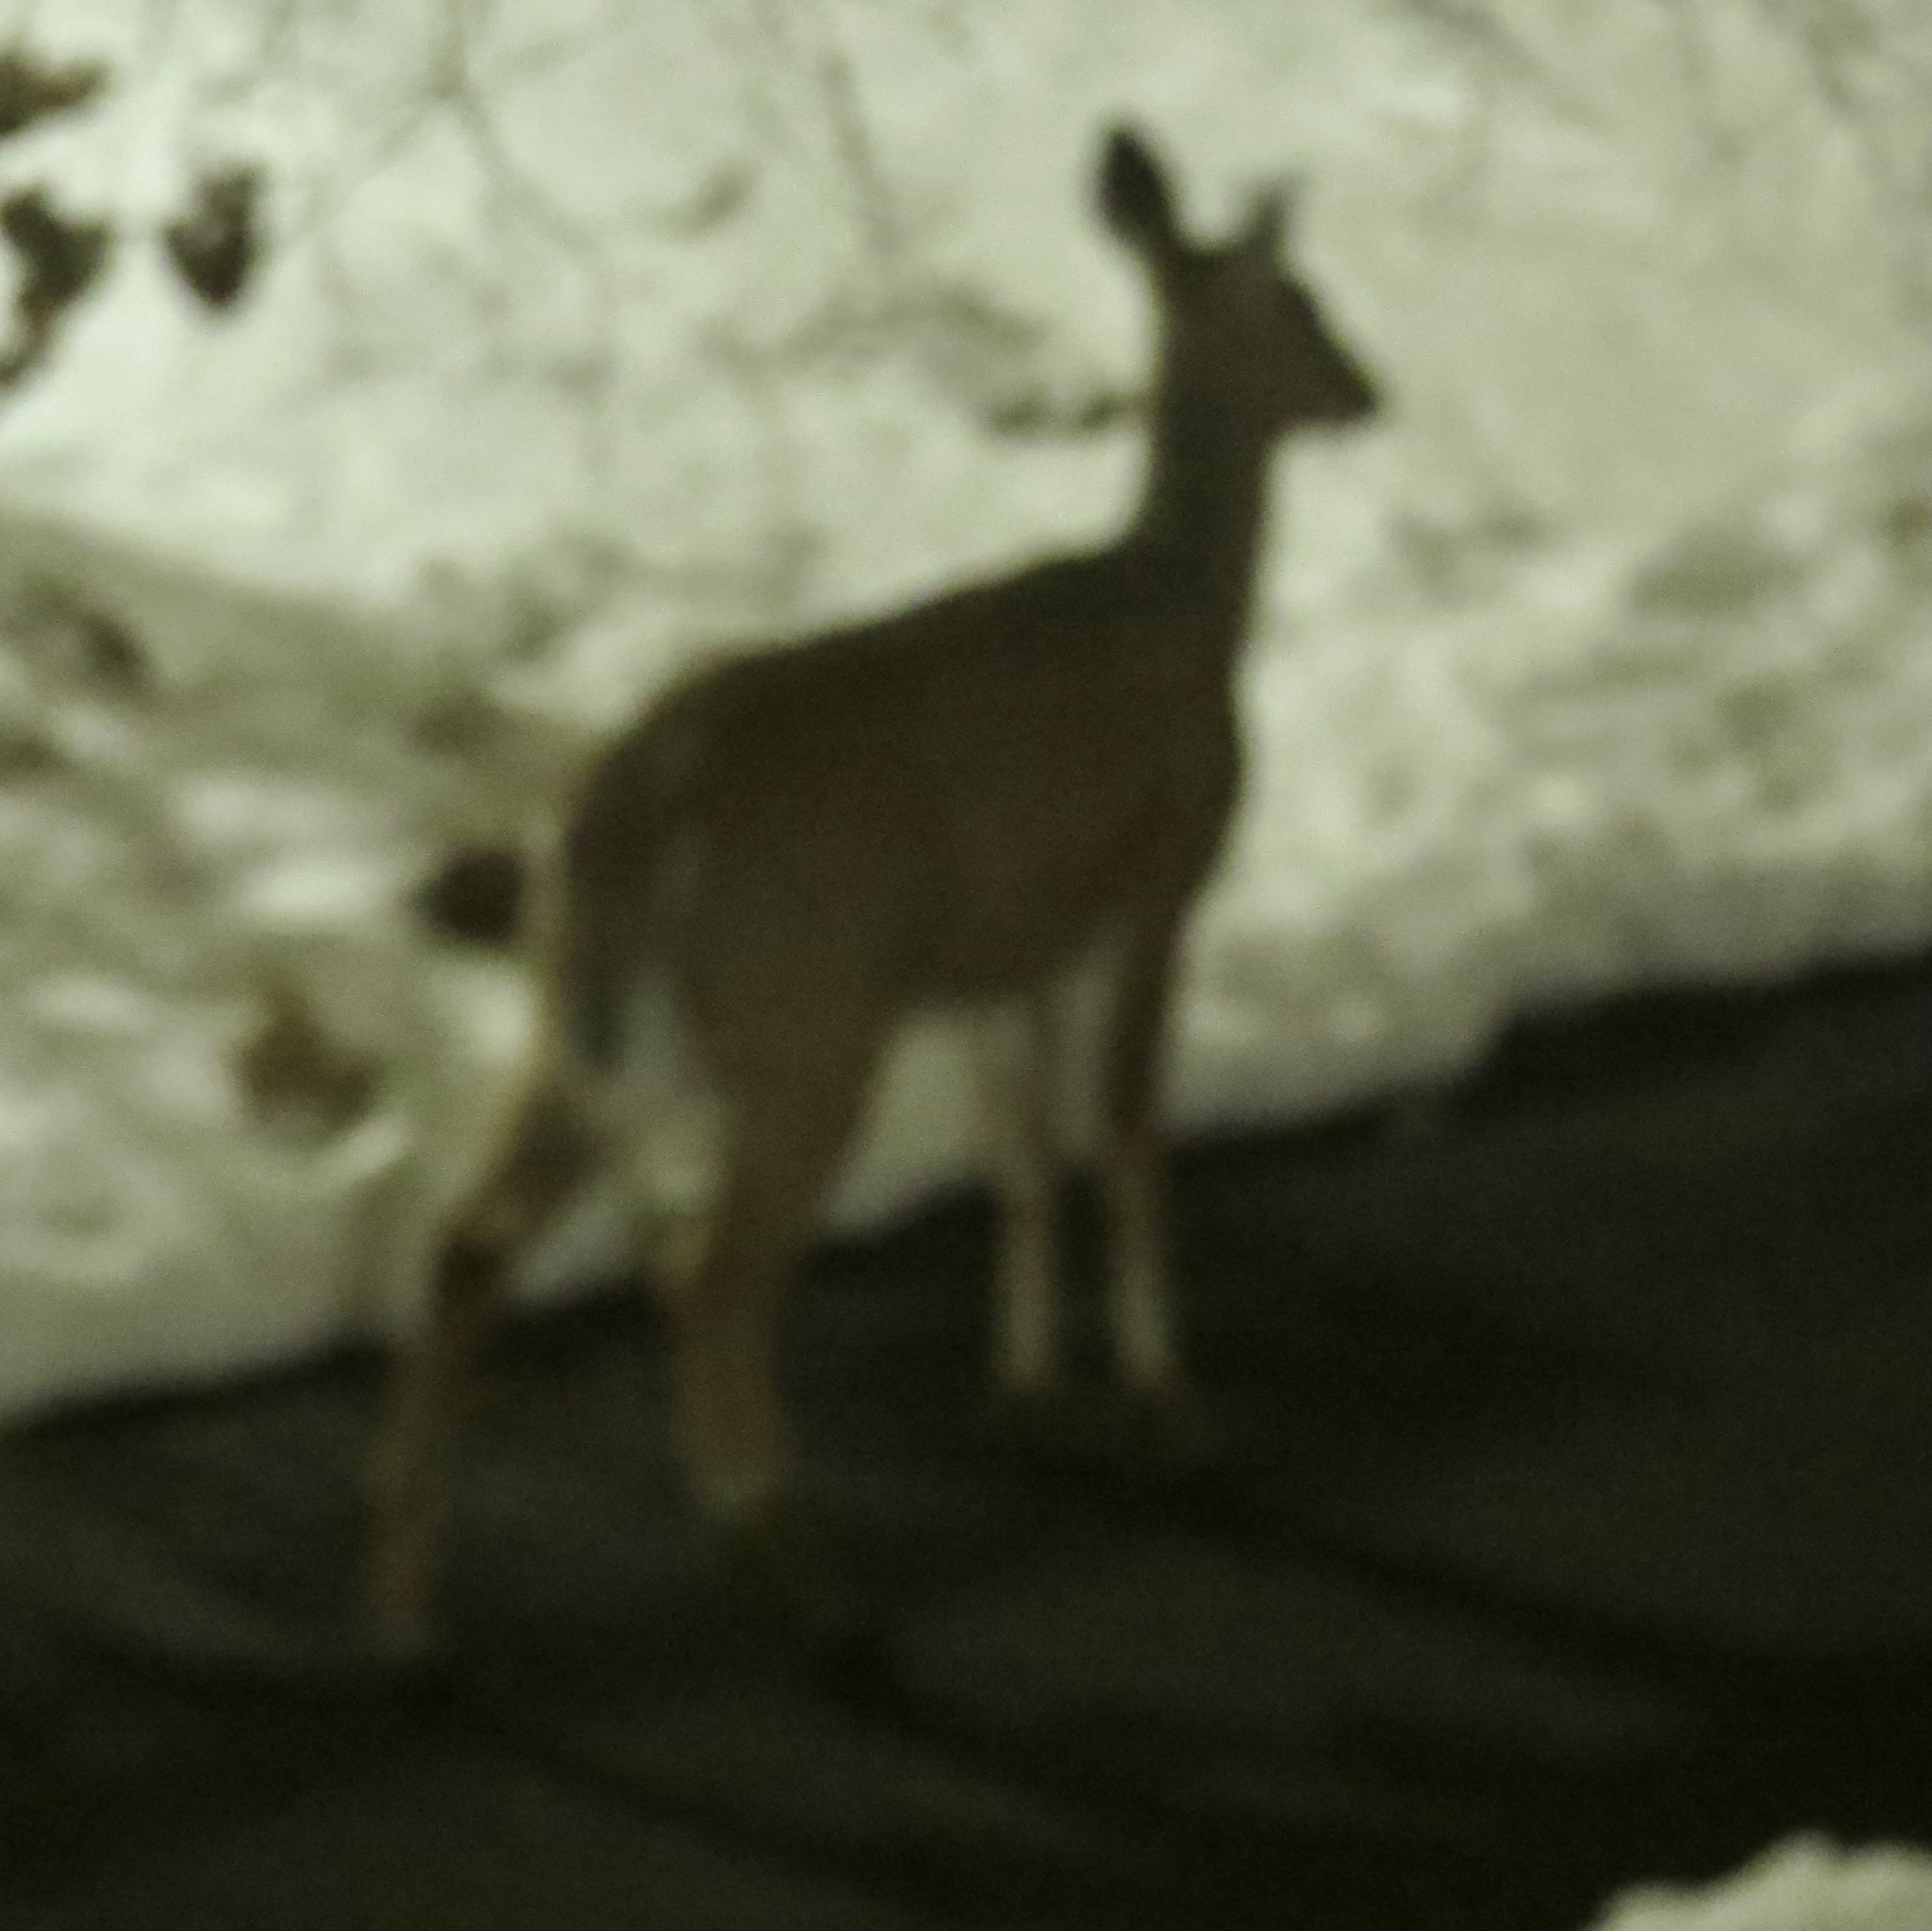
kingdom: Animalia
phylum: Chordata
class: Mammalia
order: Artiodactyla
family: Cervidae
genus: Odocoileus
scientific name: Odocoileus virginianus
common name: White-tailed deer
